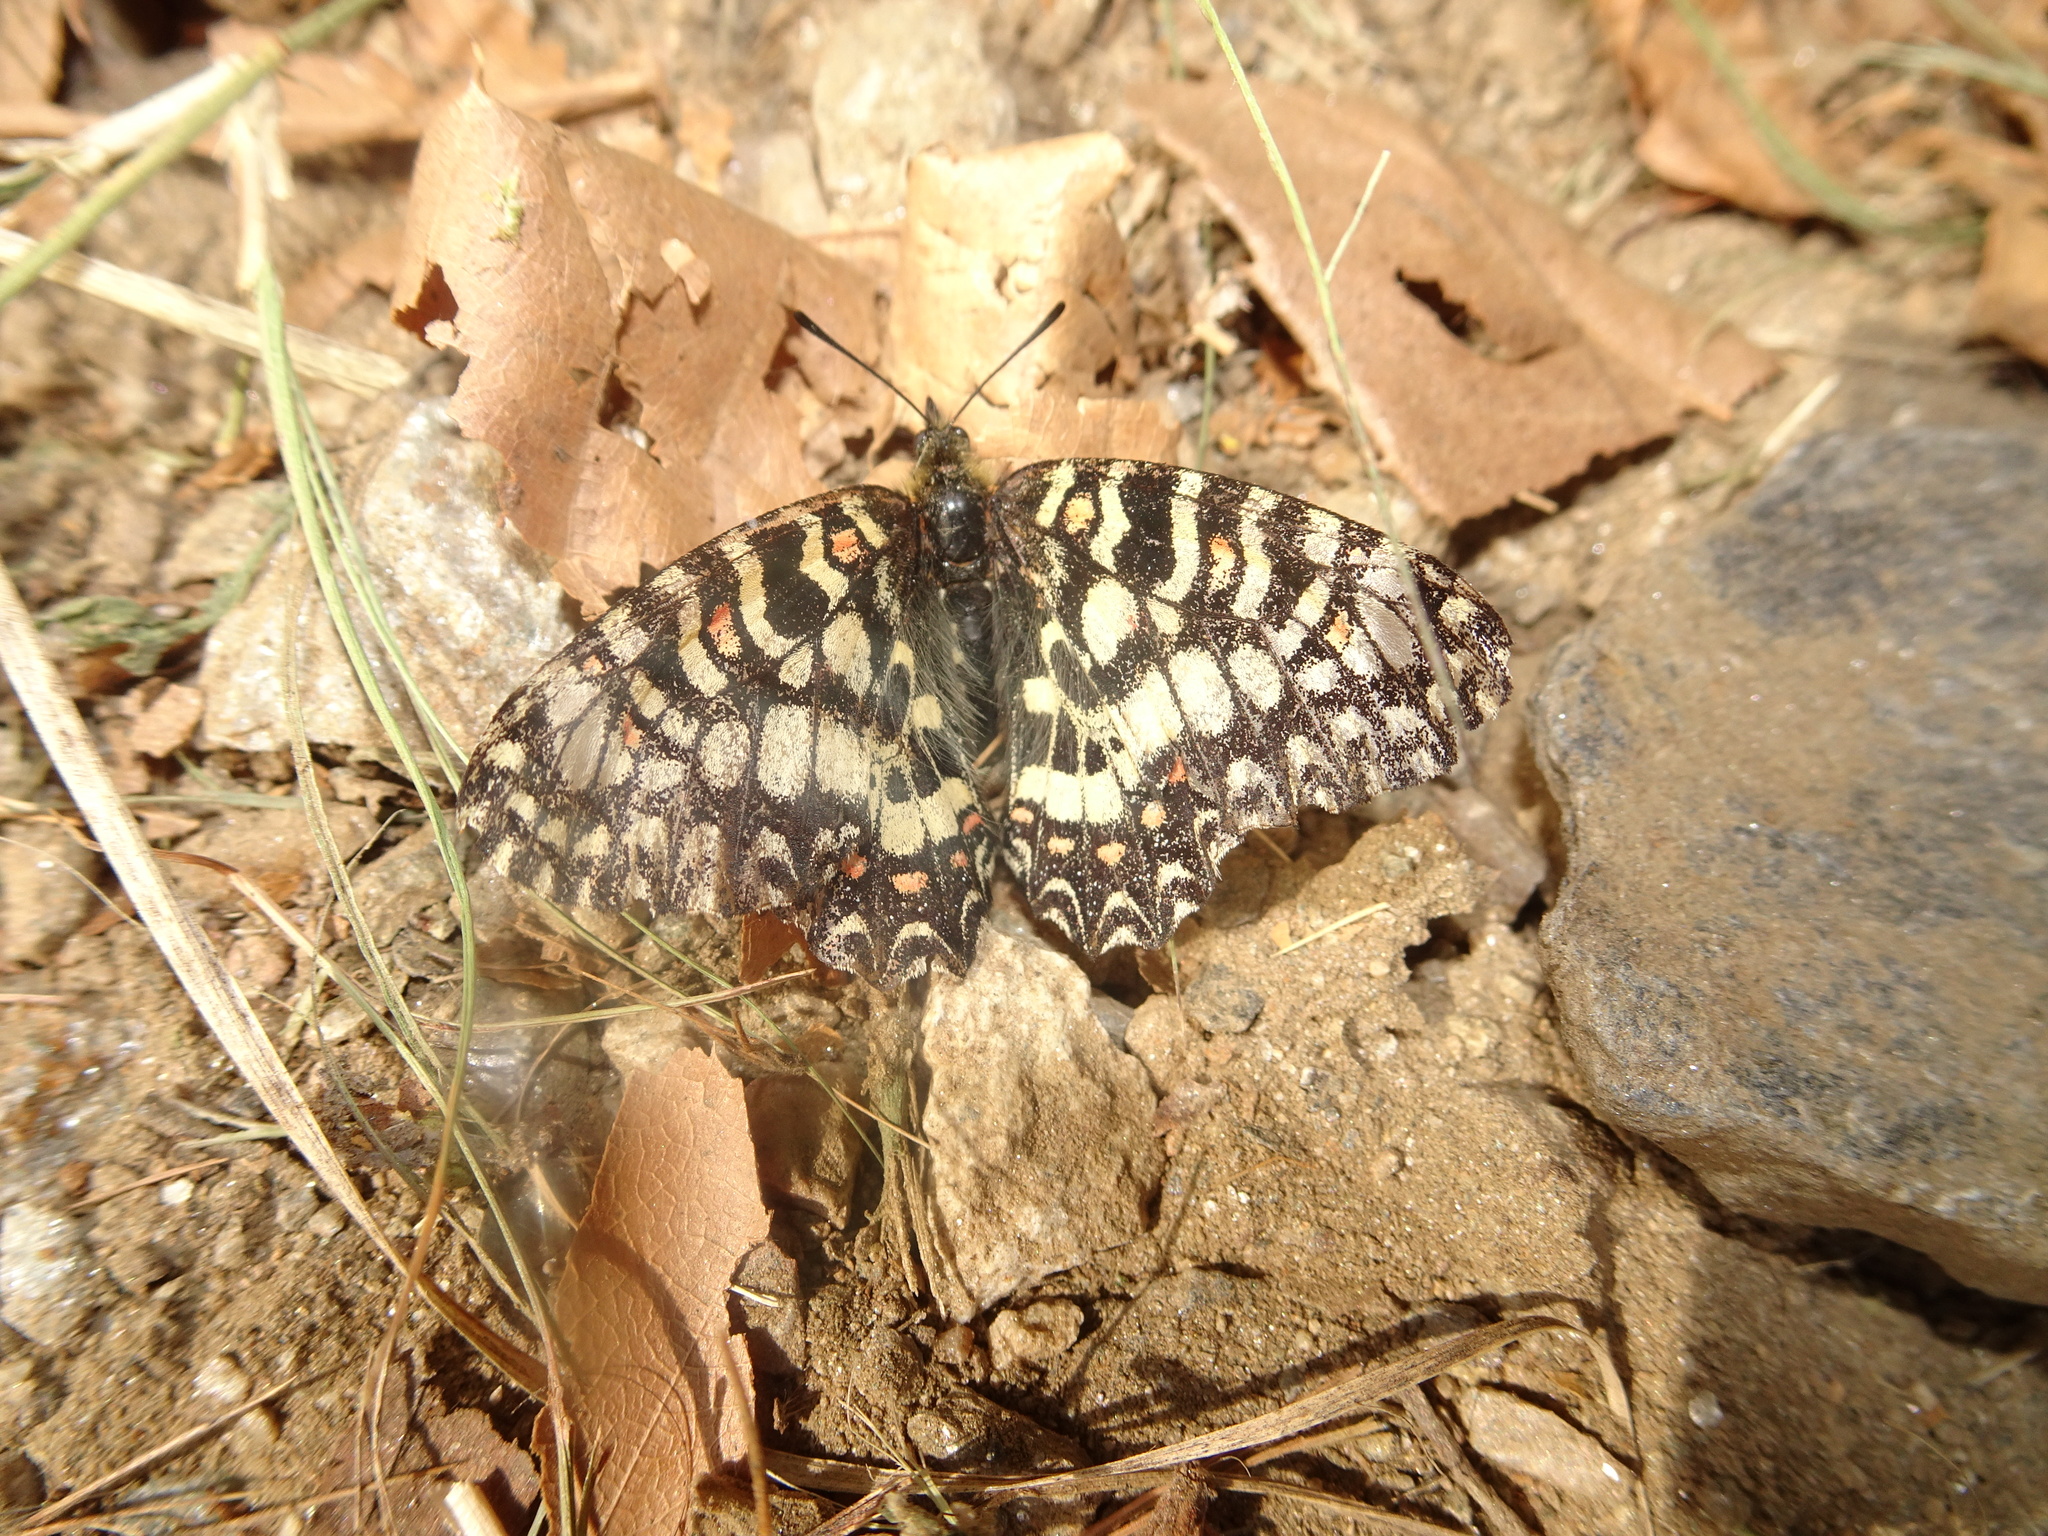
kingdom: Animalia
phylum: Arthropoda
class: Insecta
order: Lepidoptera
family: Papilionidae
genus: Zerynthia
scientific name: Zerynthia rumina
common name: Spanish festoon
